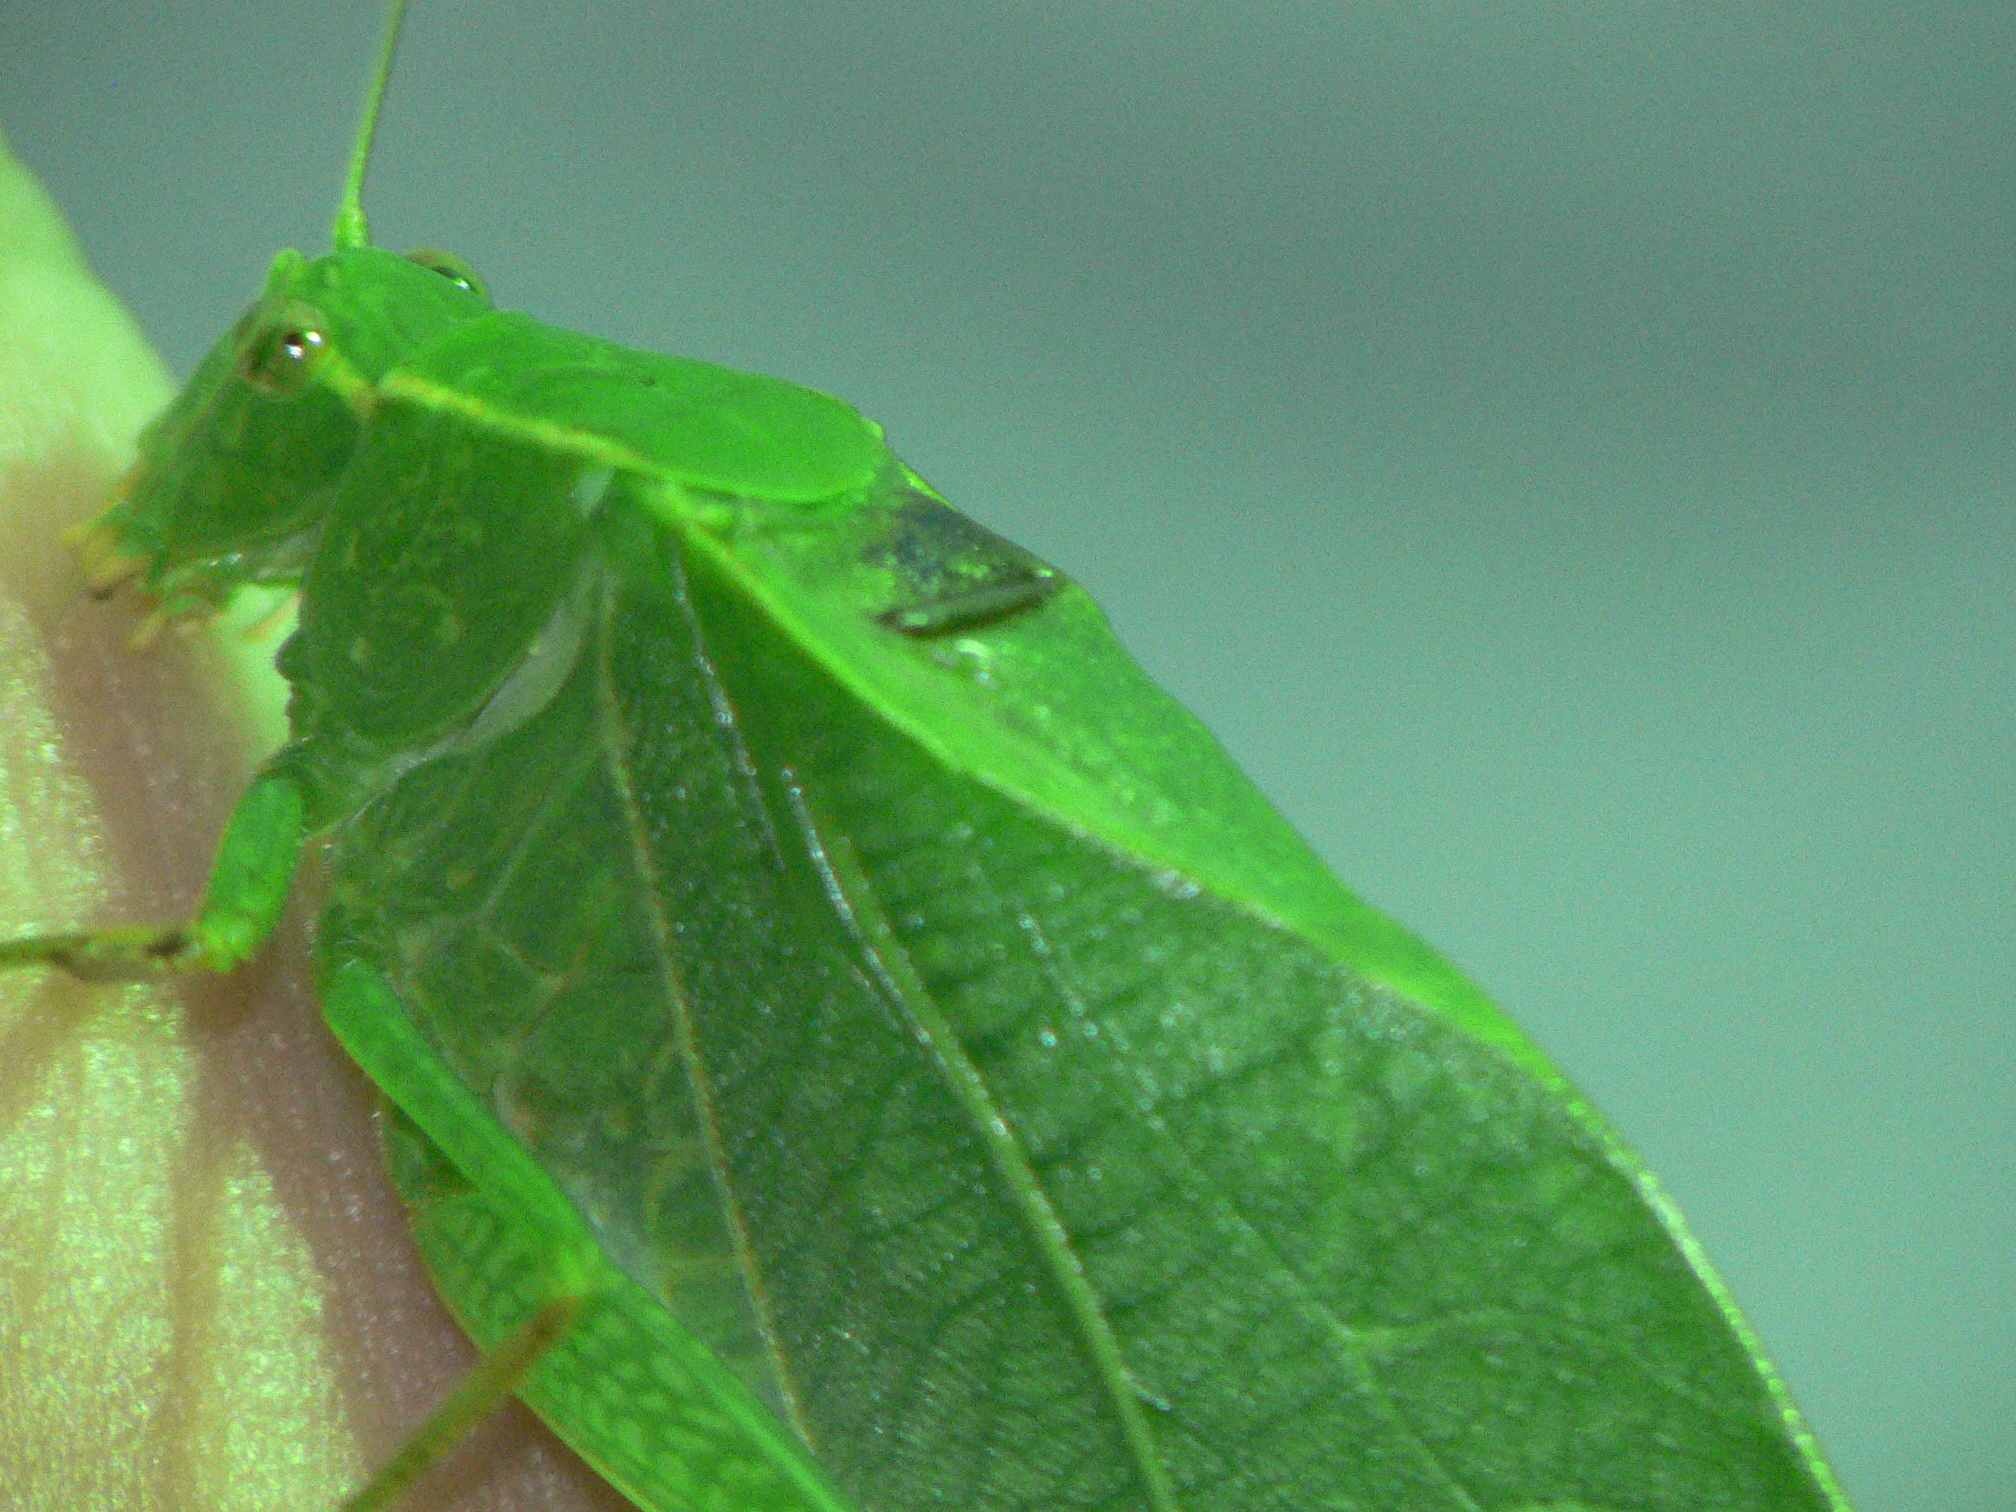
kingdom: Animalia
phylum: Arthropoda
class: Insecta
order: Orthoptera
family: Tettigoniidae
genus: Microcentrum
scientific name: Microcentrum retinerve
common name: Angular-winged katydid
